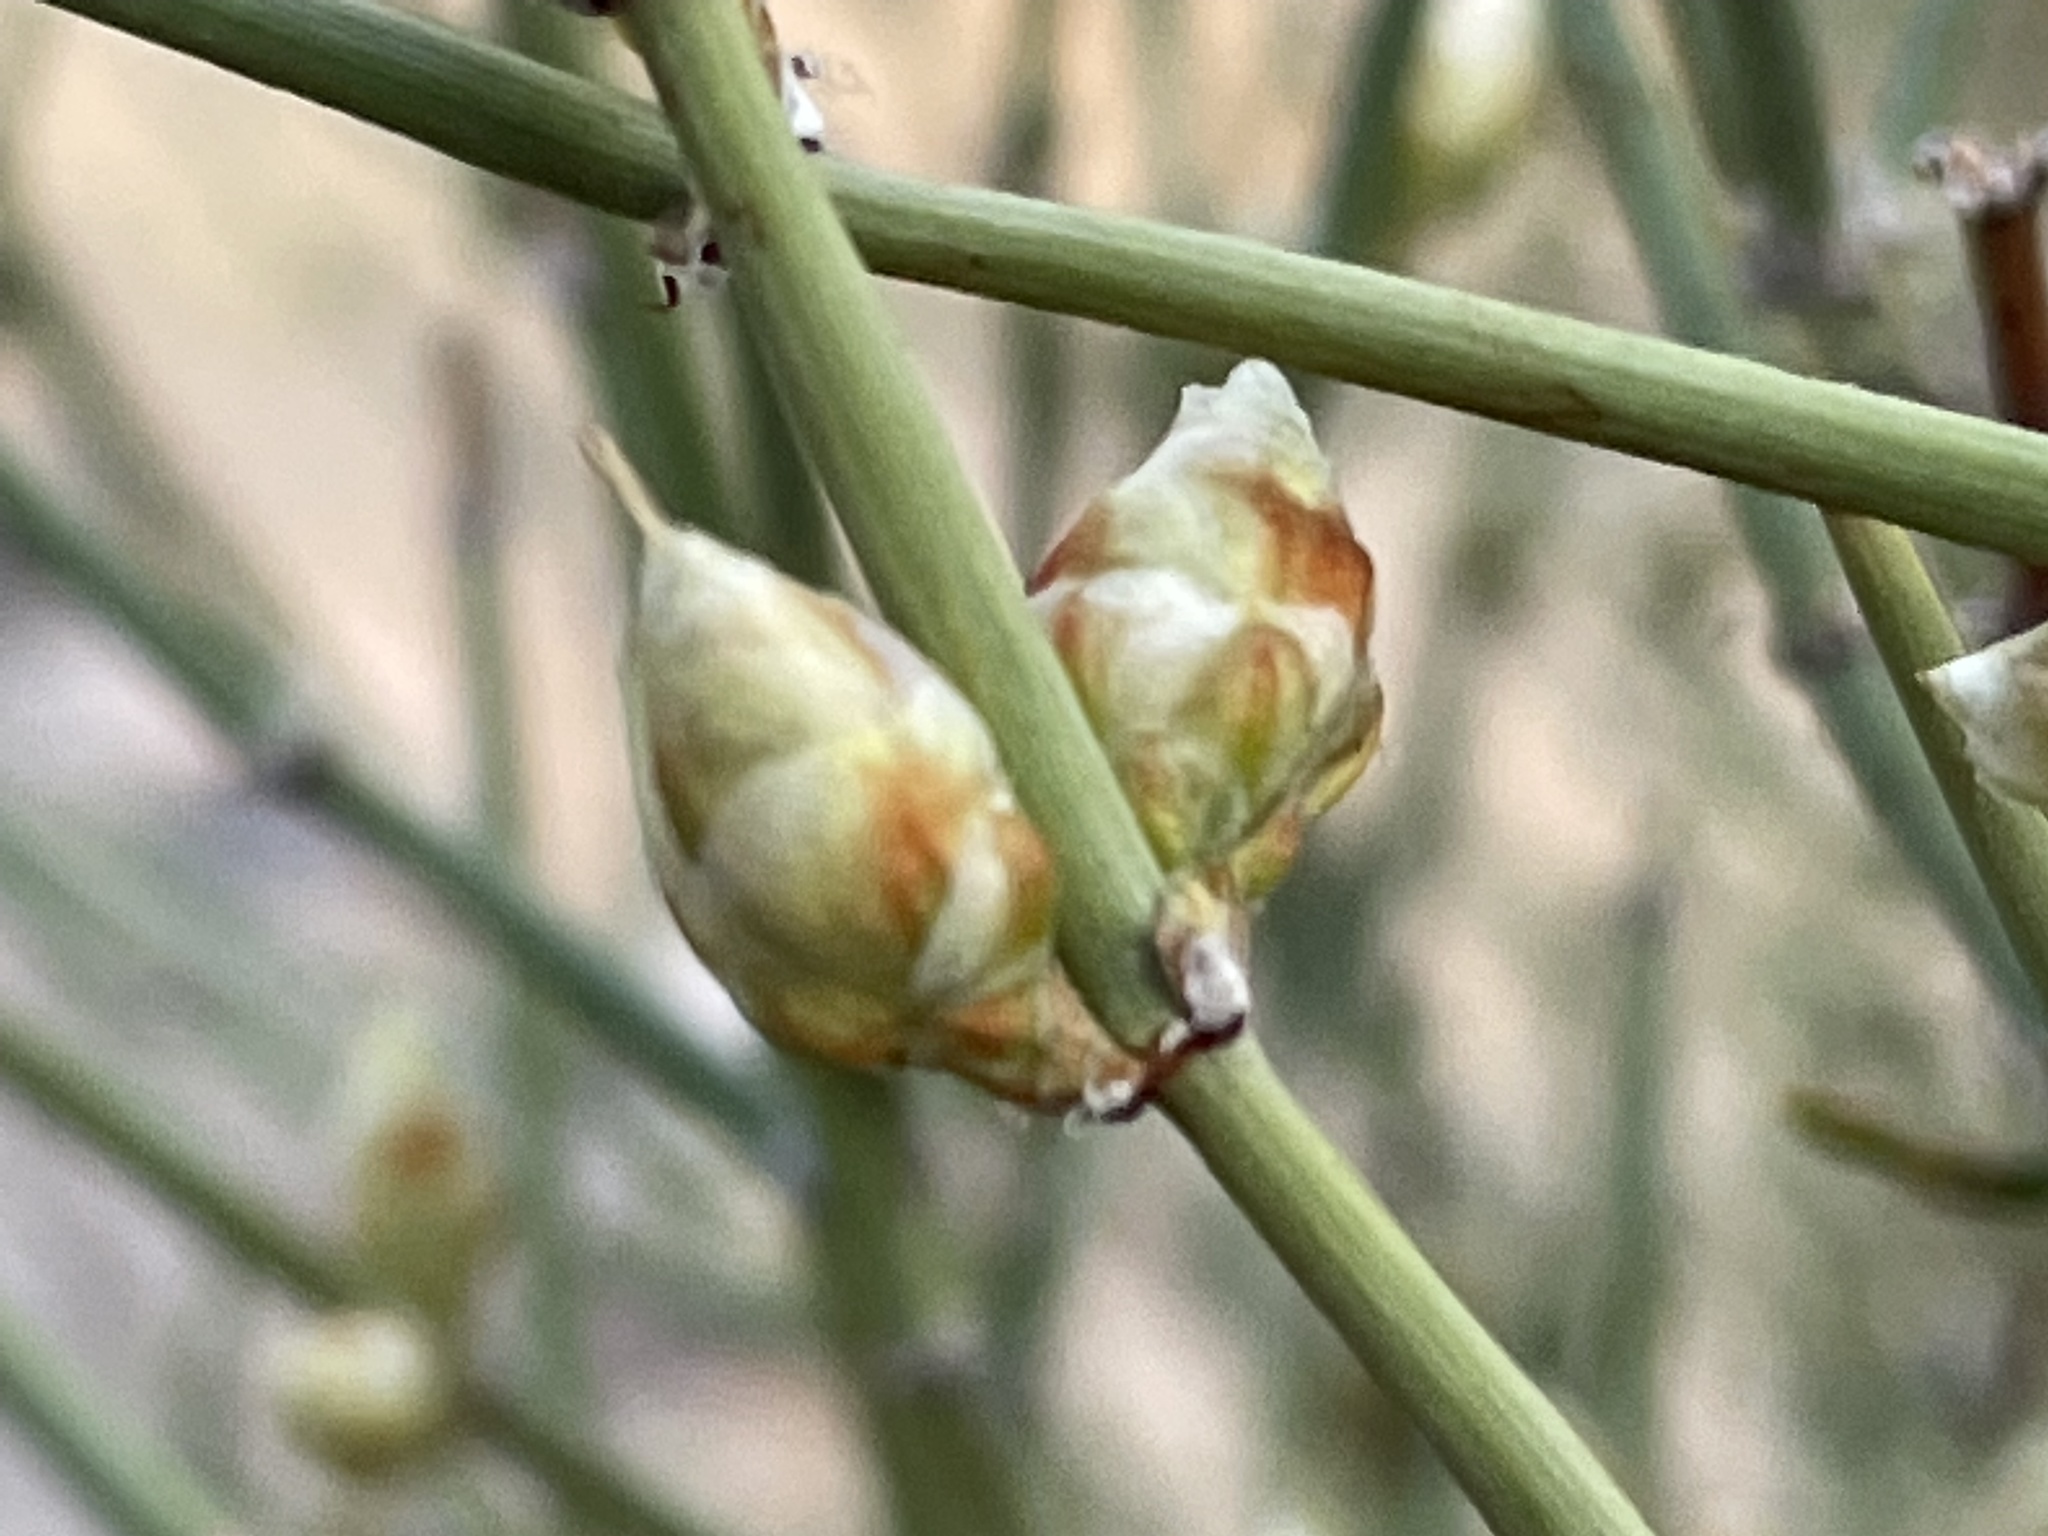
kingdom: Plantae
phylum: Tracheophyta
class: Gnetopsida
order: Ephedrales
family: Ephedraceae
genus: Ephedra
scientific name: Ephedra torreyana
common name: Torrey ephedra
